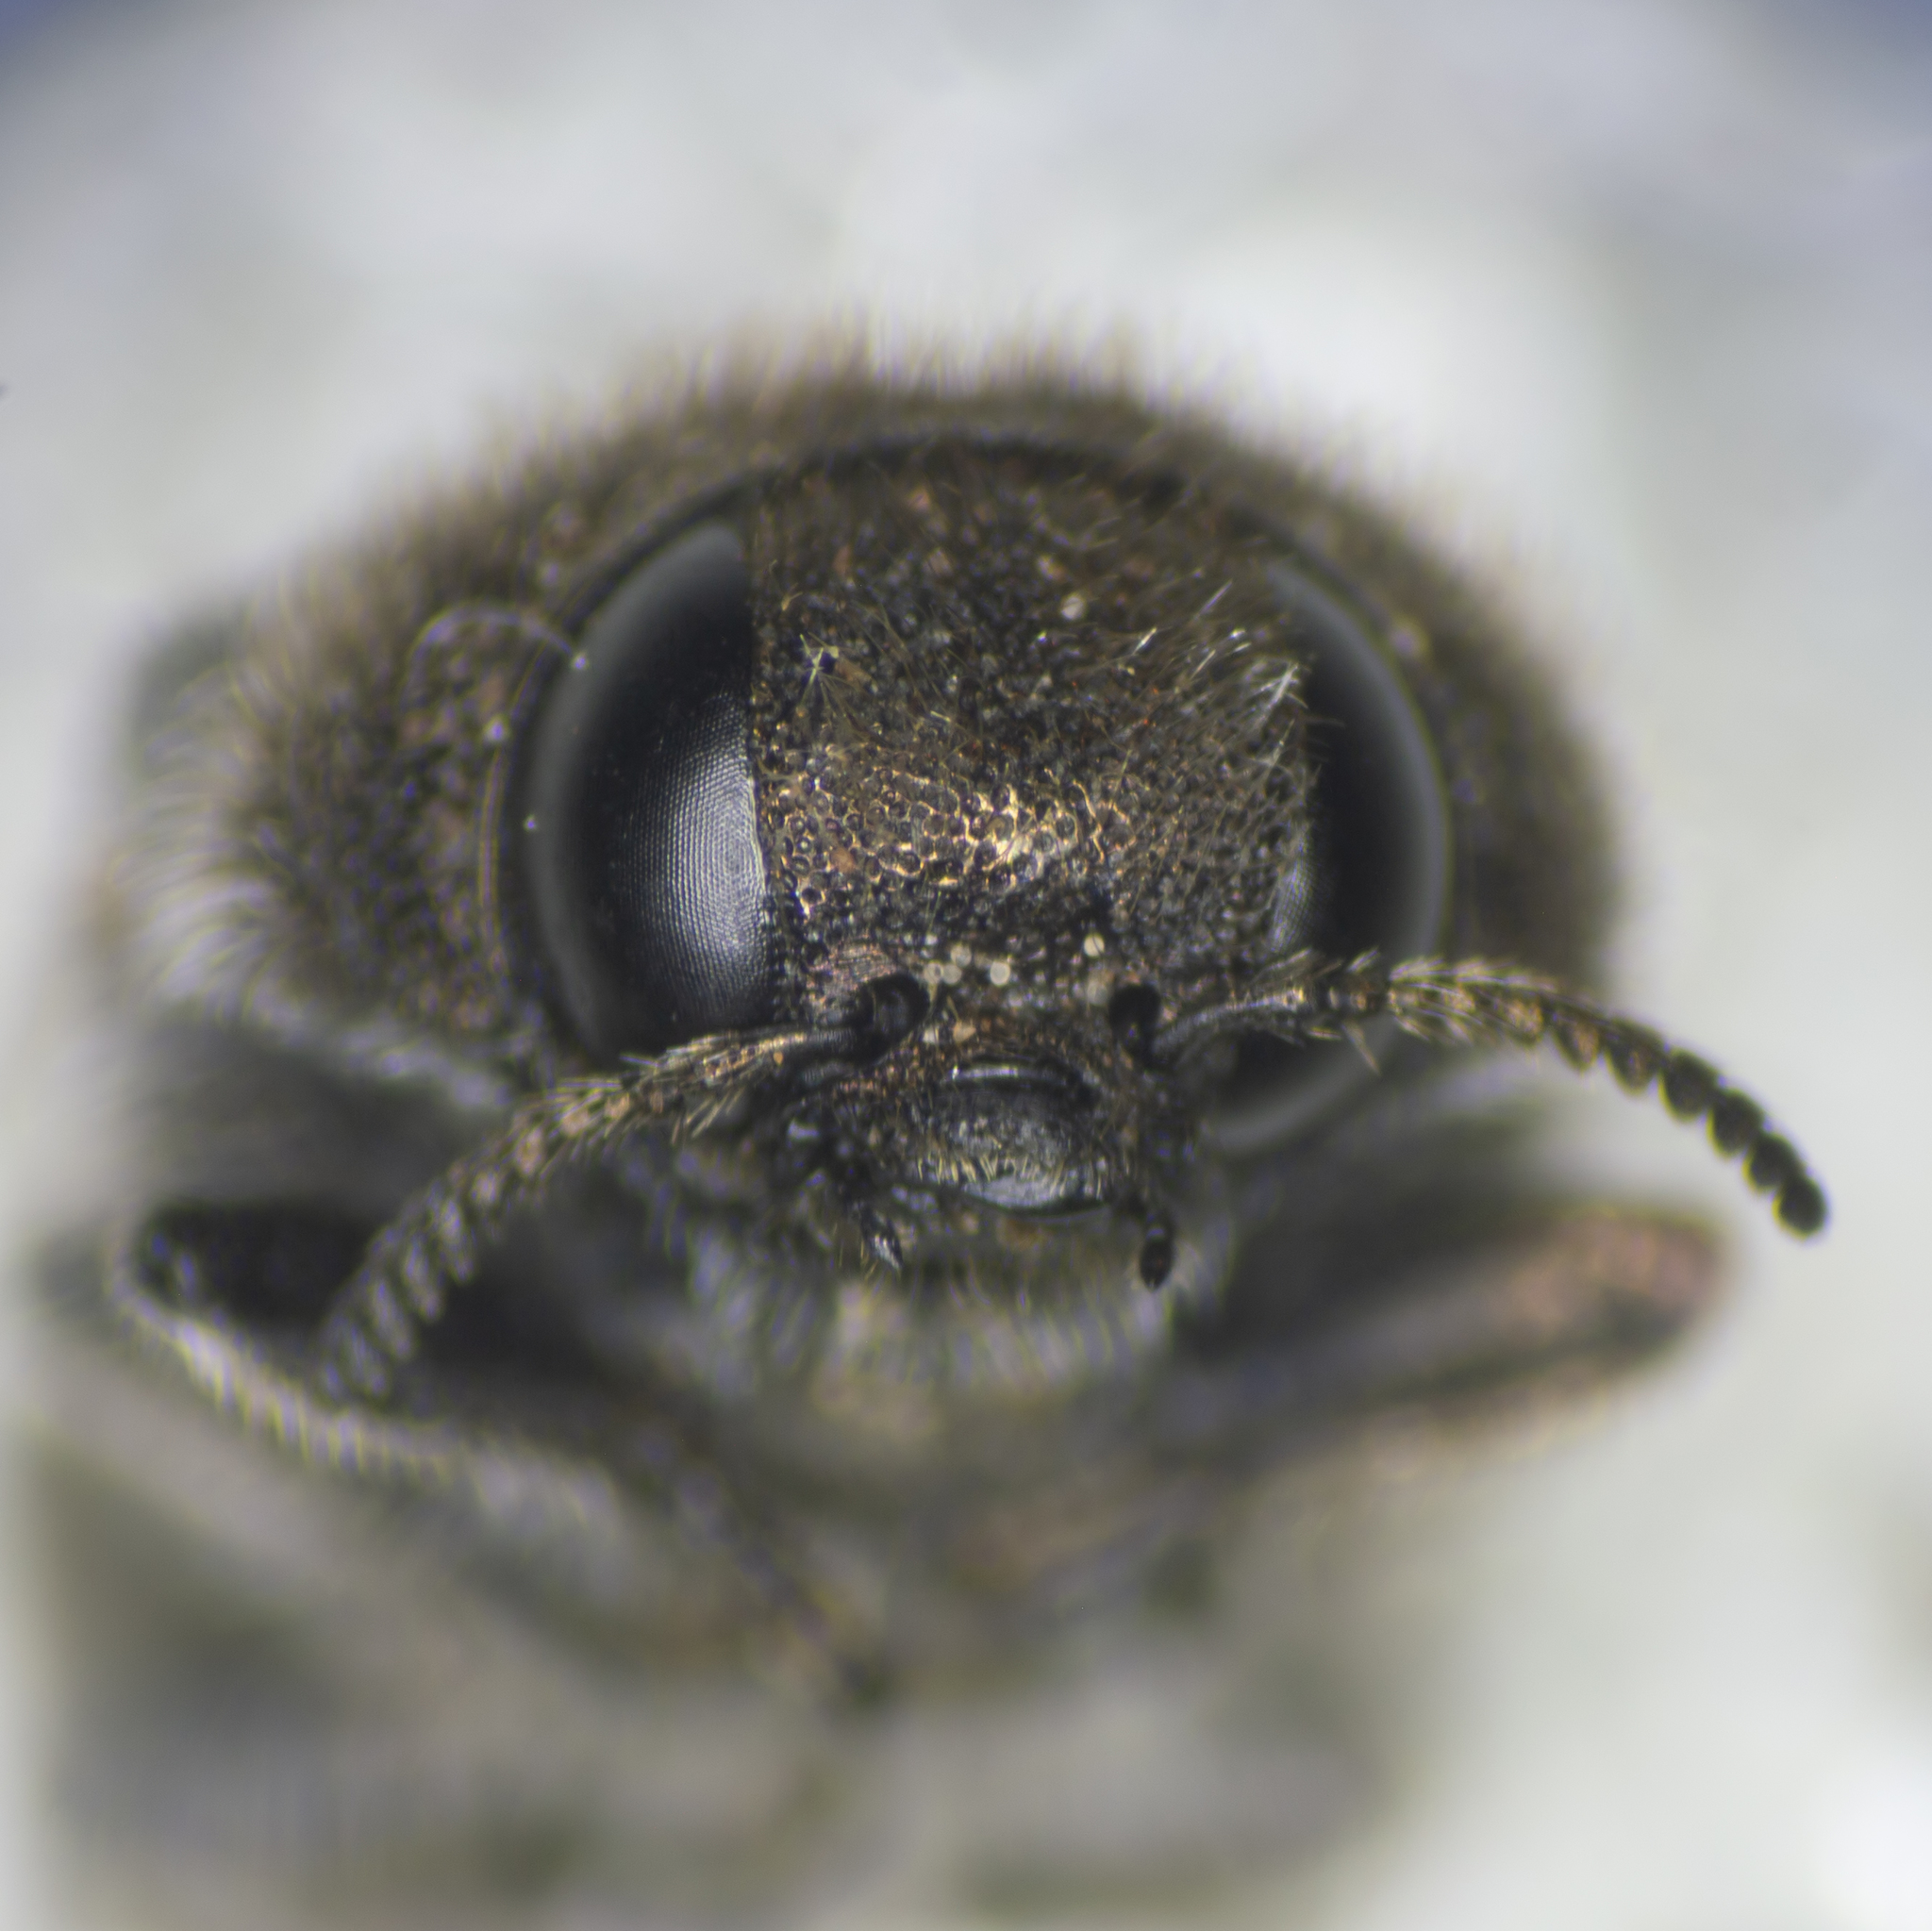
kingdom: Animalia
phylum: Arthropoda
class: Insecta
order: Coleoptera
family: Buprestidae
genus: Acmaeodera
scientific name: Acmaeodera edmundi
